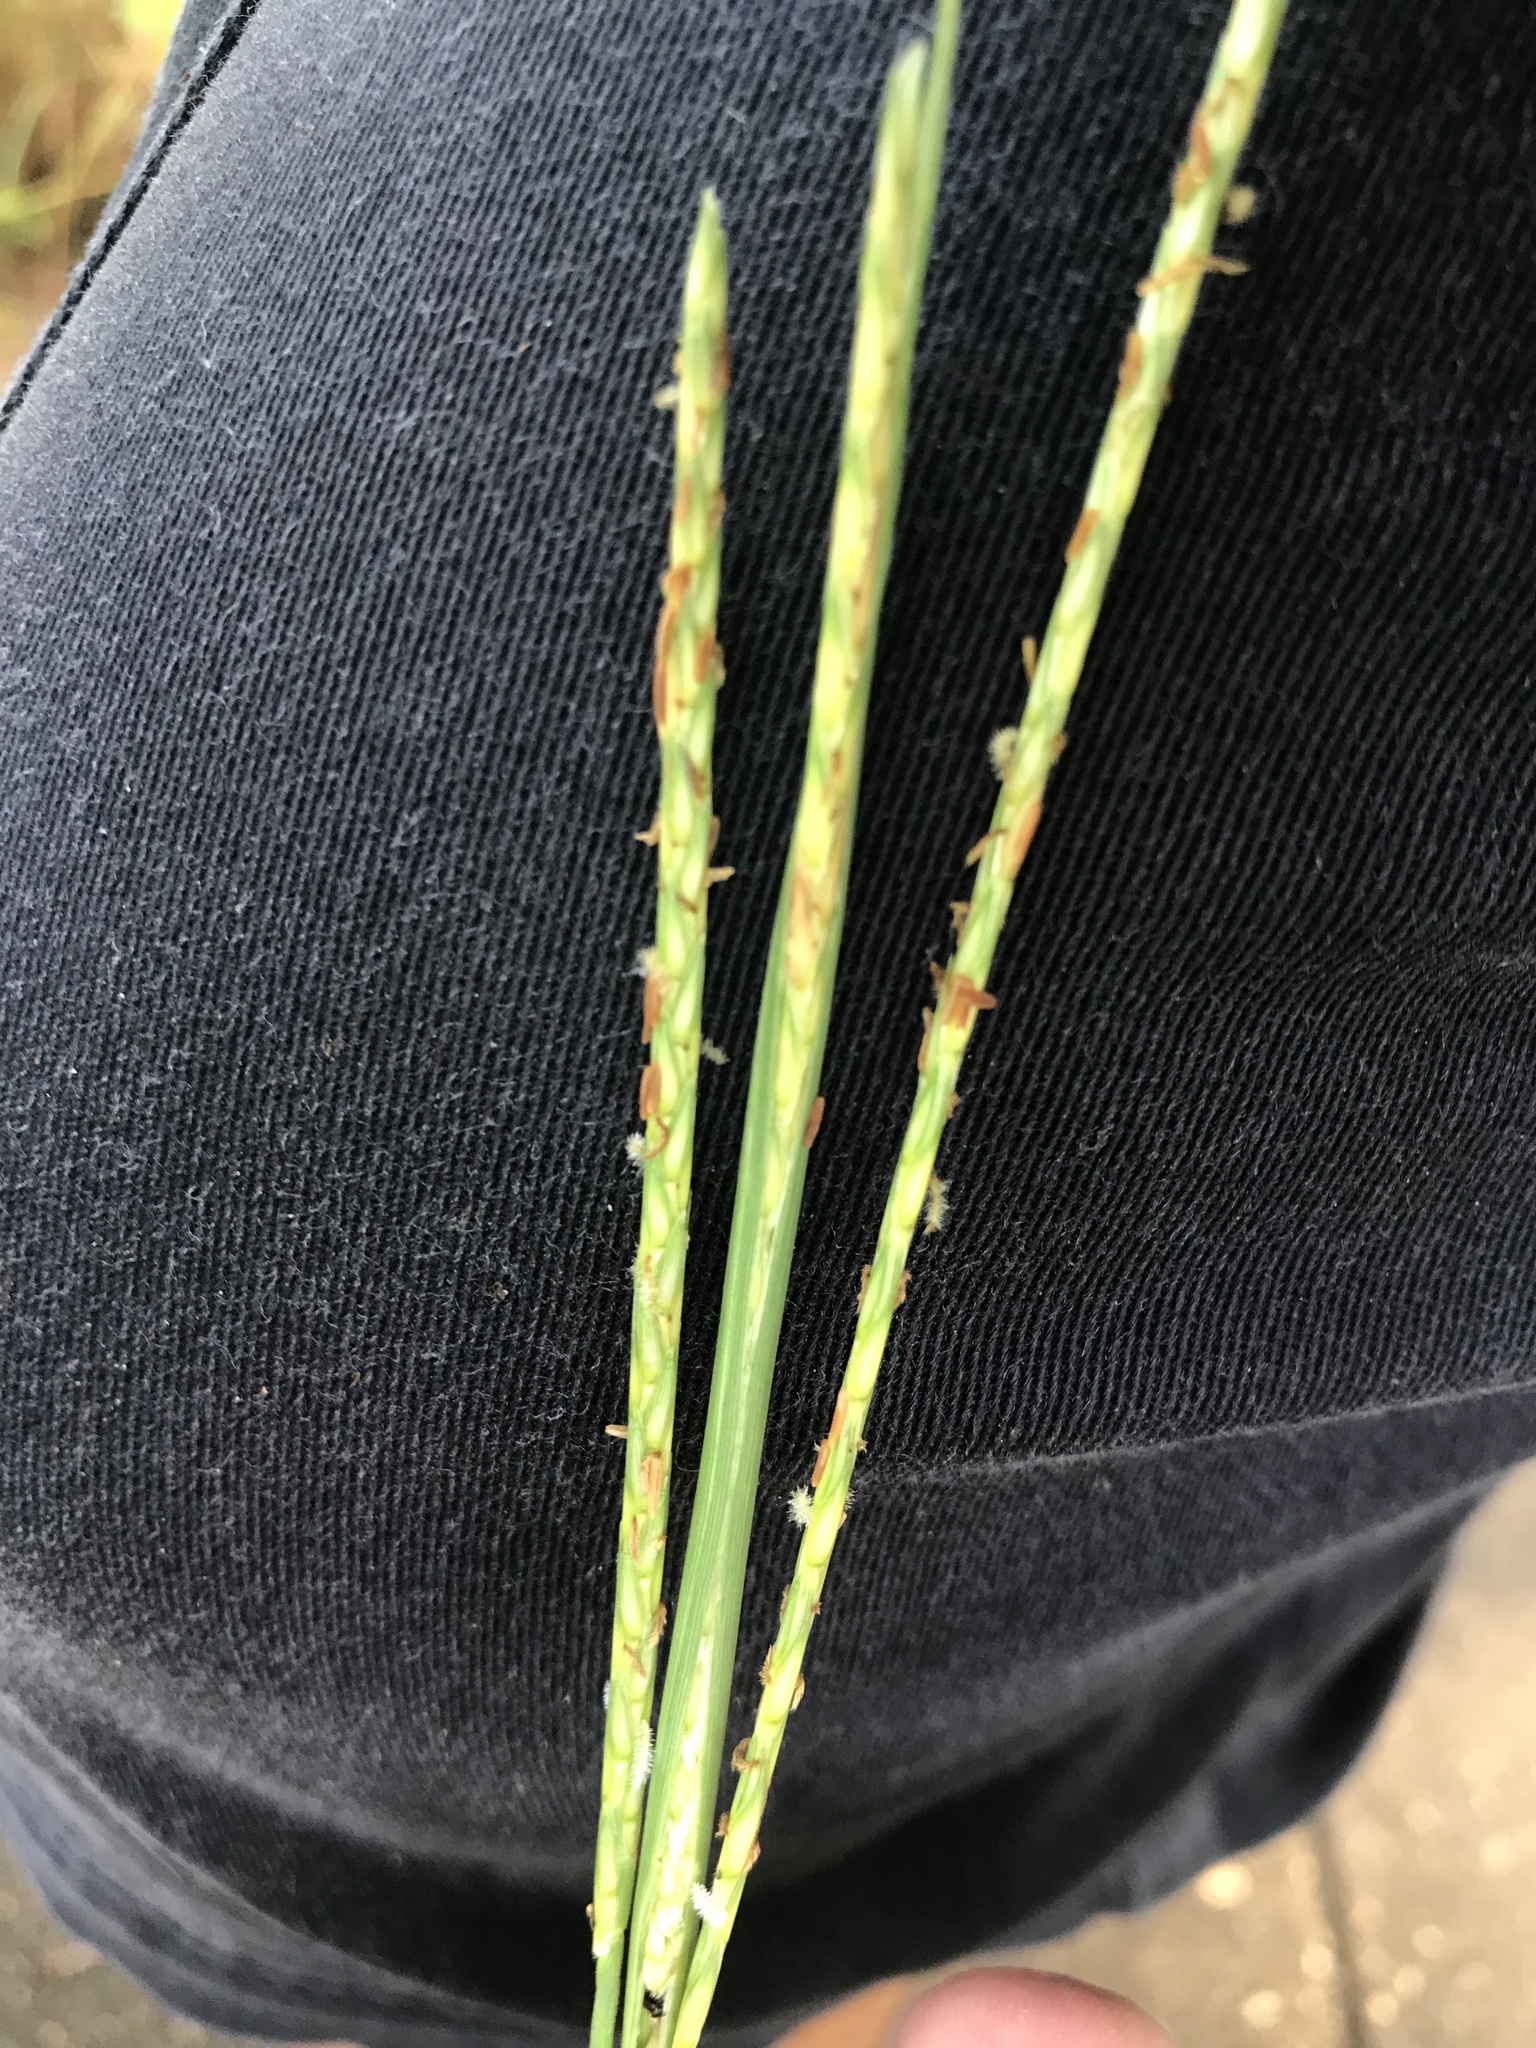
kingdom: Plantae
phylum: Tracheophyta
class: Liliopsida
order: Poales
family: Poaceae
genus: Elionurus
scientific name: Elionurus tripsacoides
